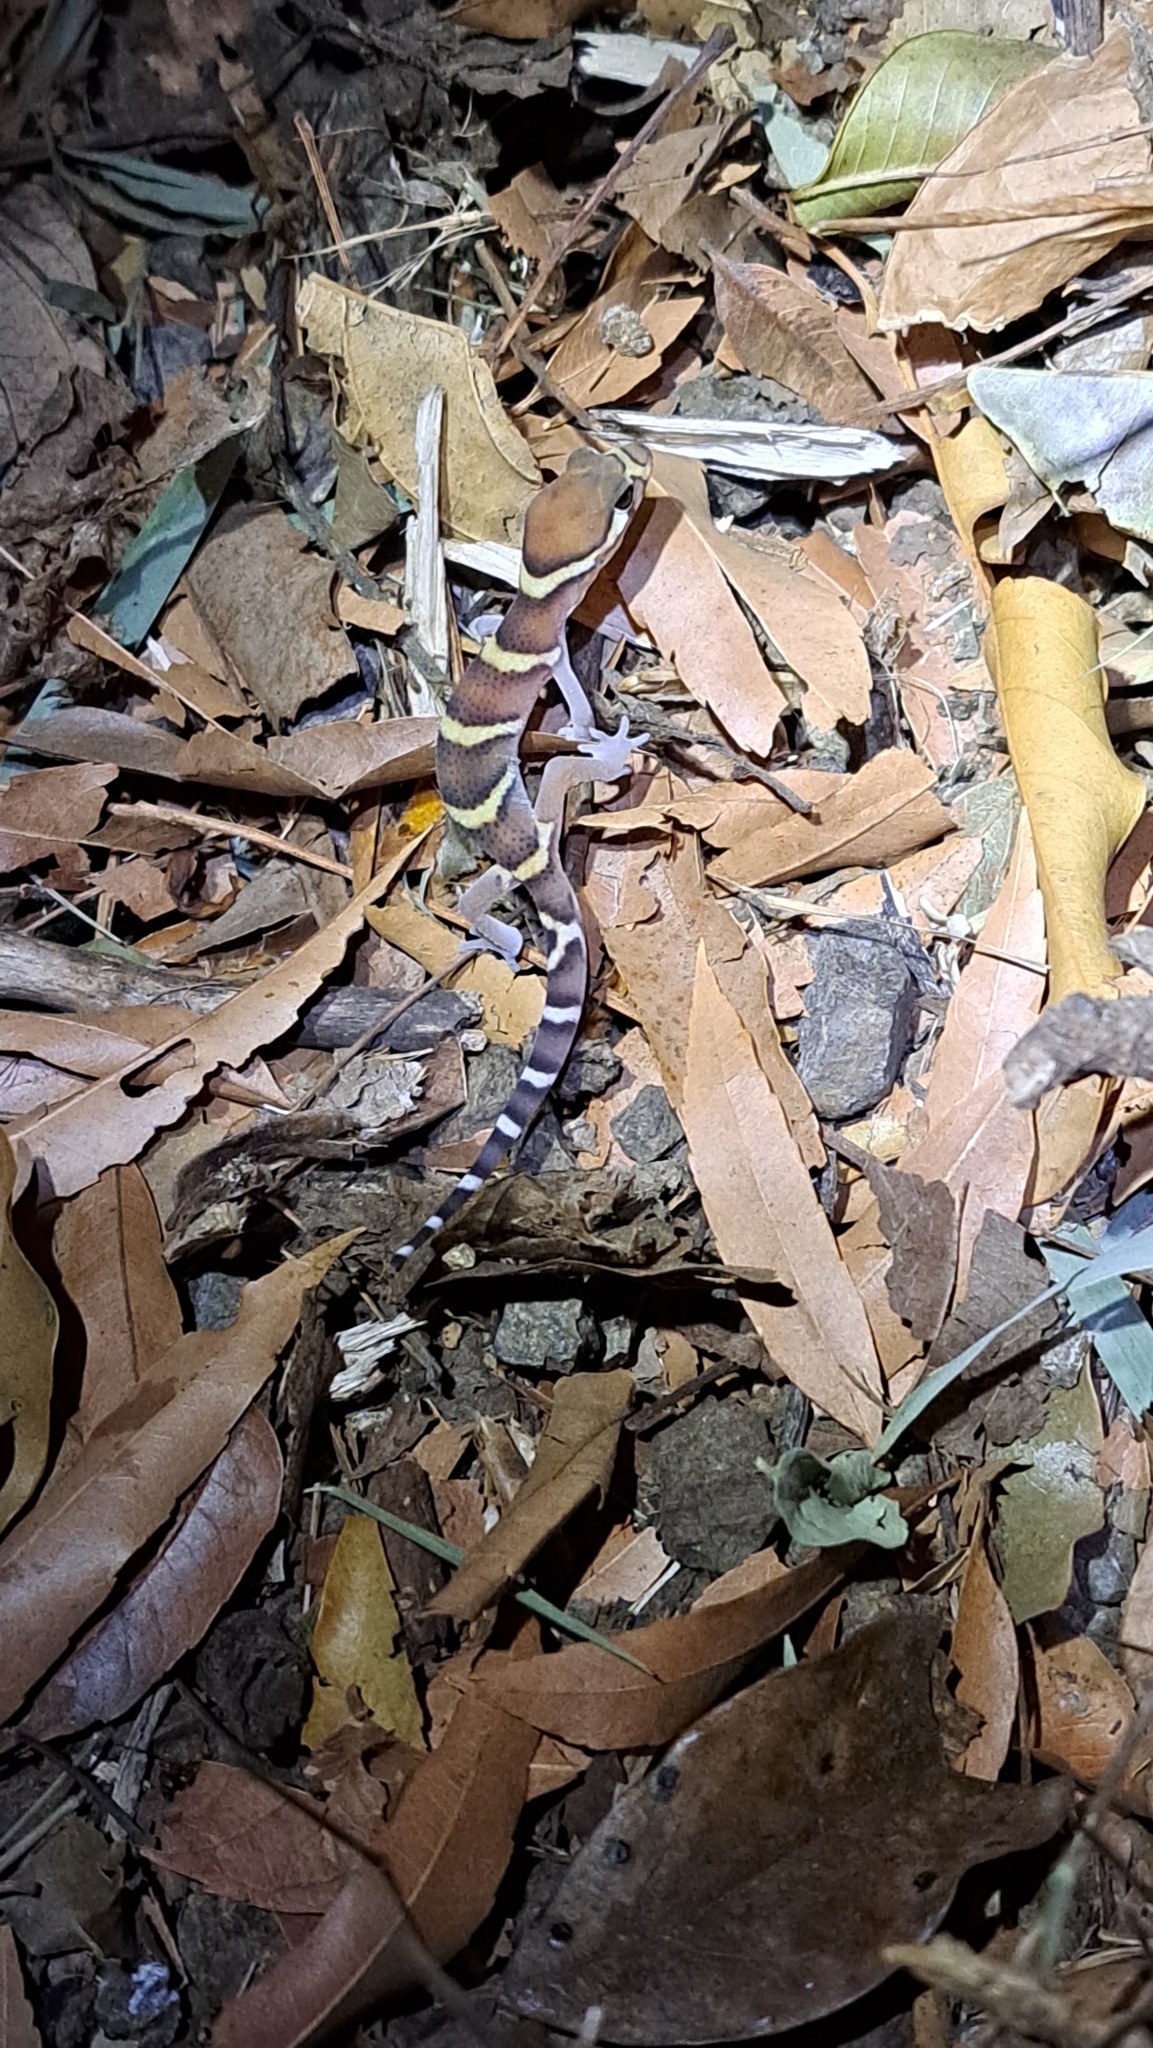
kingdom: Animalia
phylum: Chordata
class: Squamata
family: Eublepharidae
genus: Coleonyx
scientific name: Coleonyx mitratus
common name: Central american banded gecko
